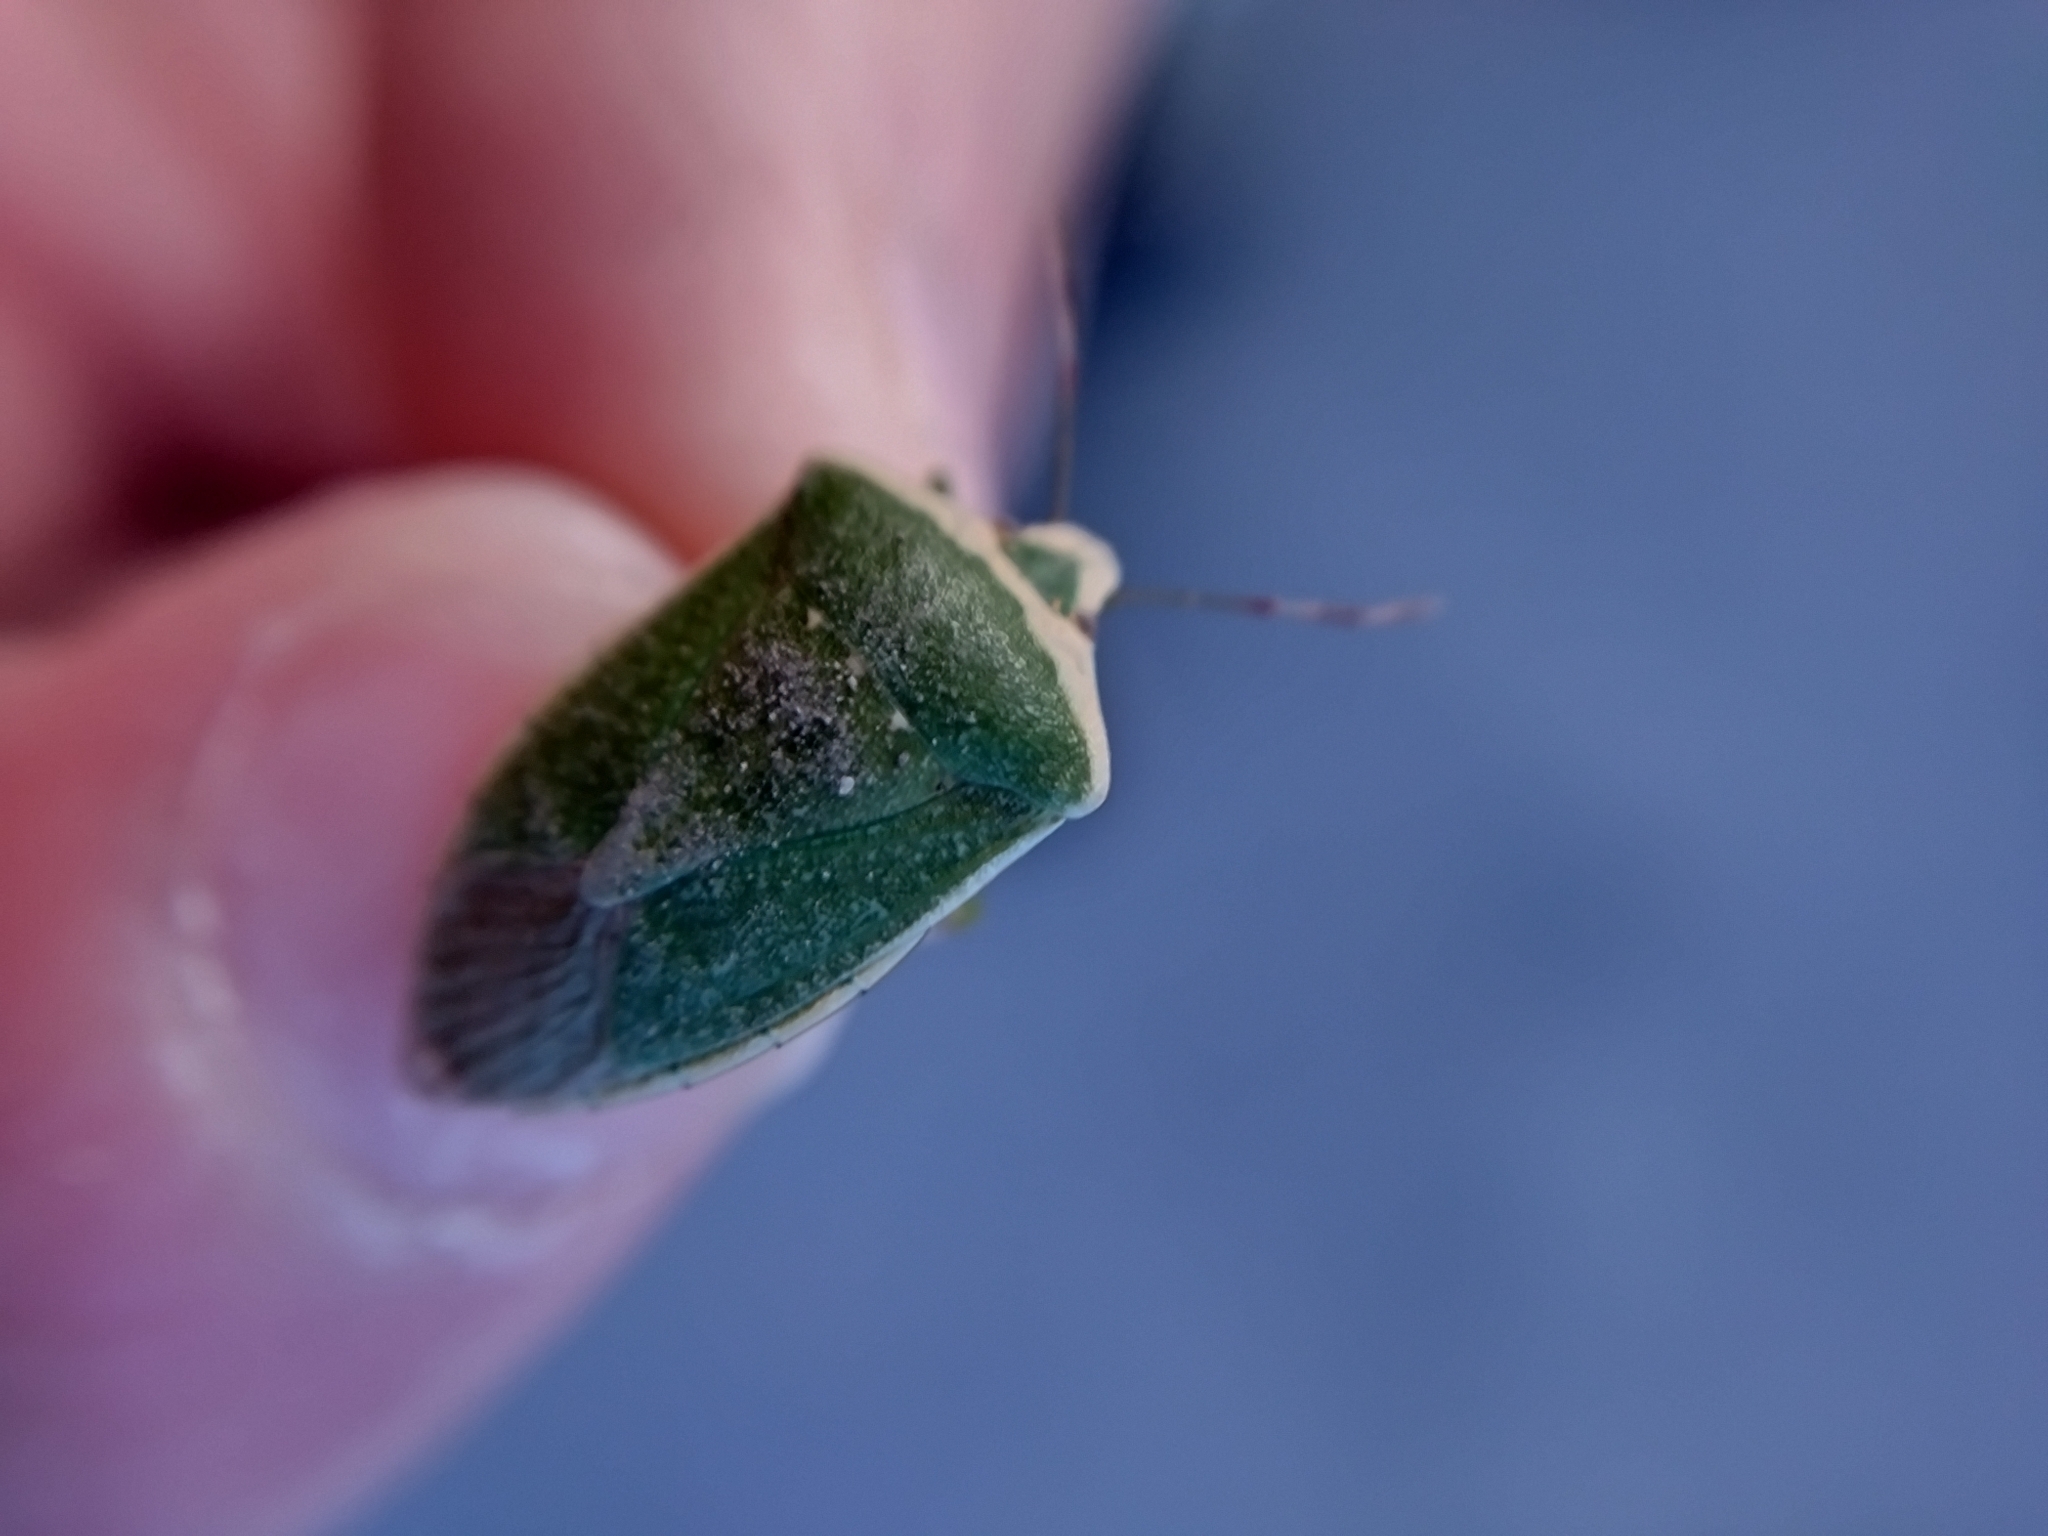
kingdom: Animalia
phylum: Arthropoda
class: Insecta
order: Hemiptera
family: Pentatomidae
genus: Nezara
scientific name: Nezara viridula
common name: Southern green stink bug
